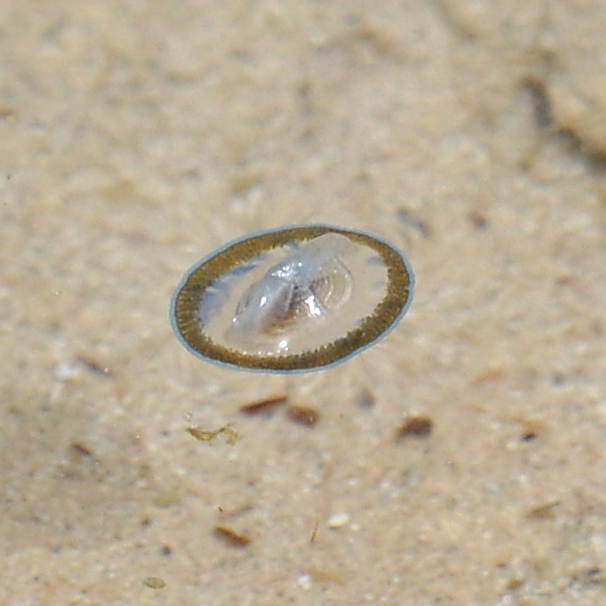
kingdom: Animalia
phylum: Cnidaria
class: Hydrozoa
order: Anthoathecata
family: Porpitidae
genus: Velella
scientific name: Velella velella
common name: By-the-wind-sailor
